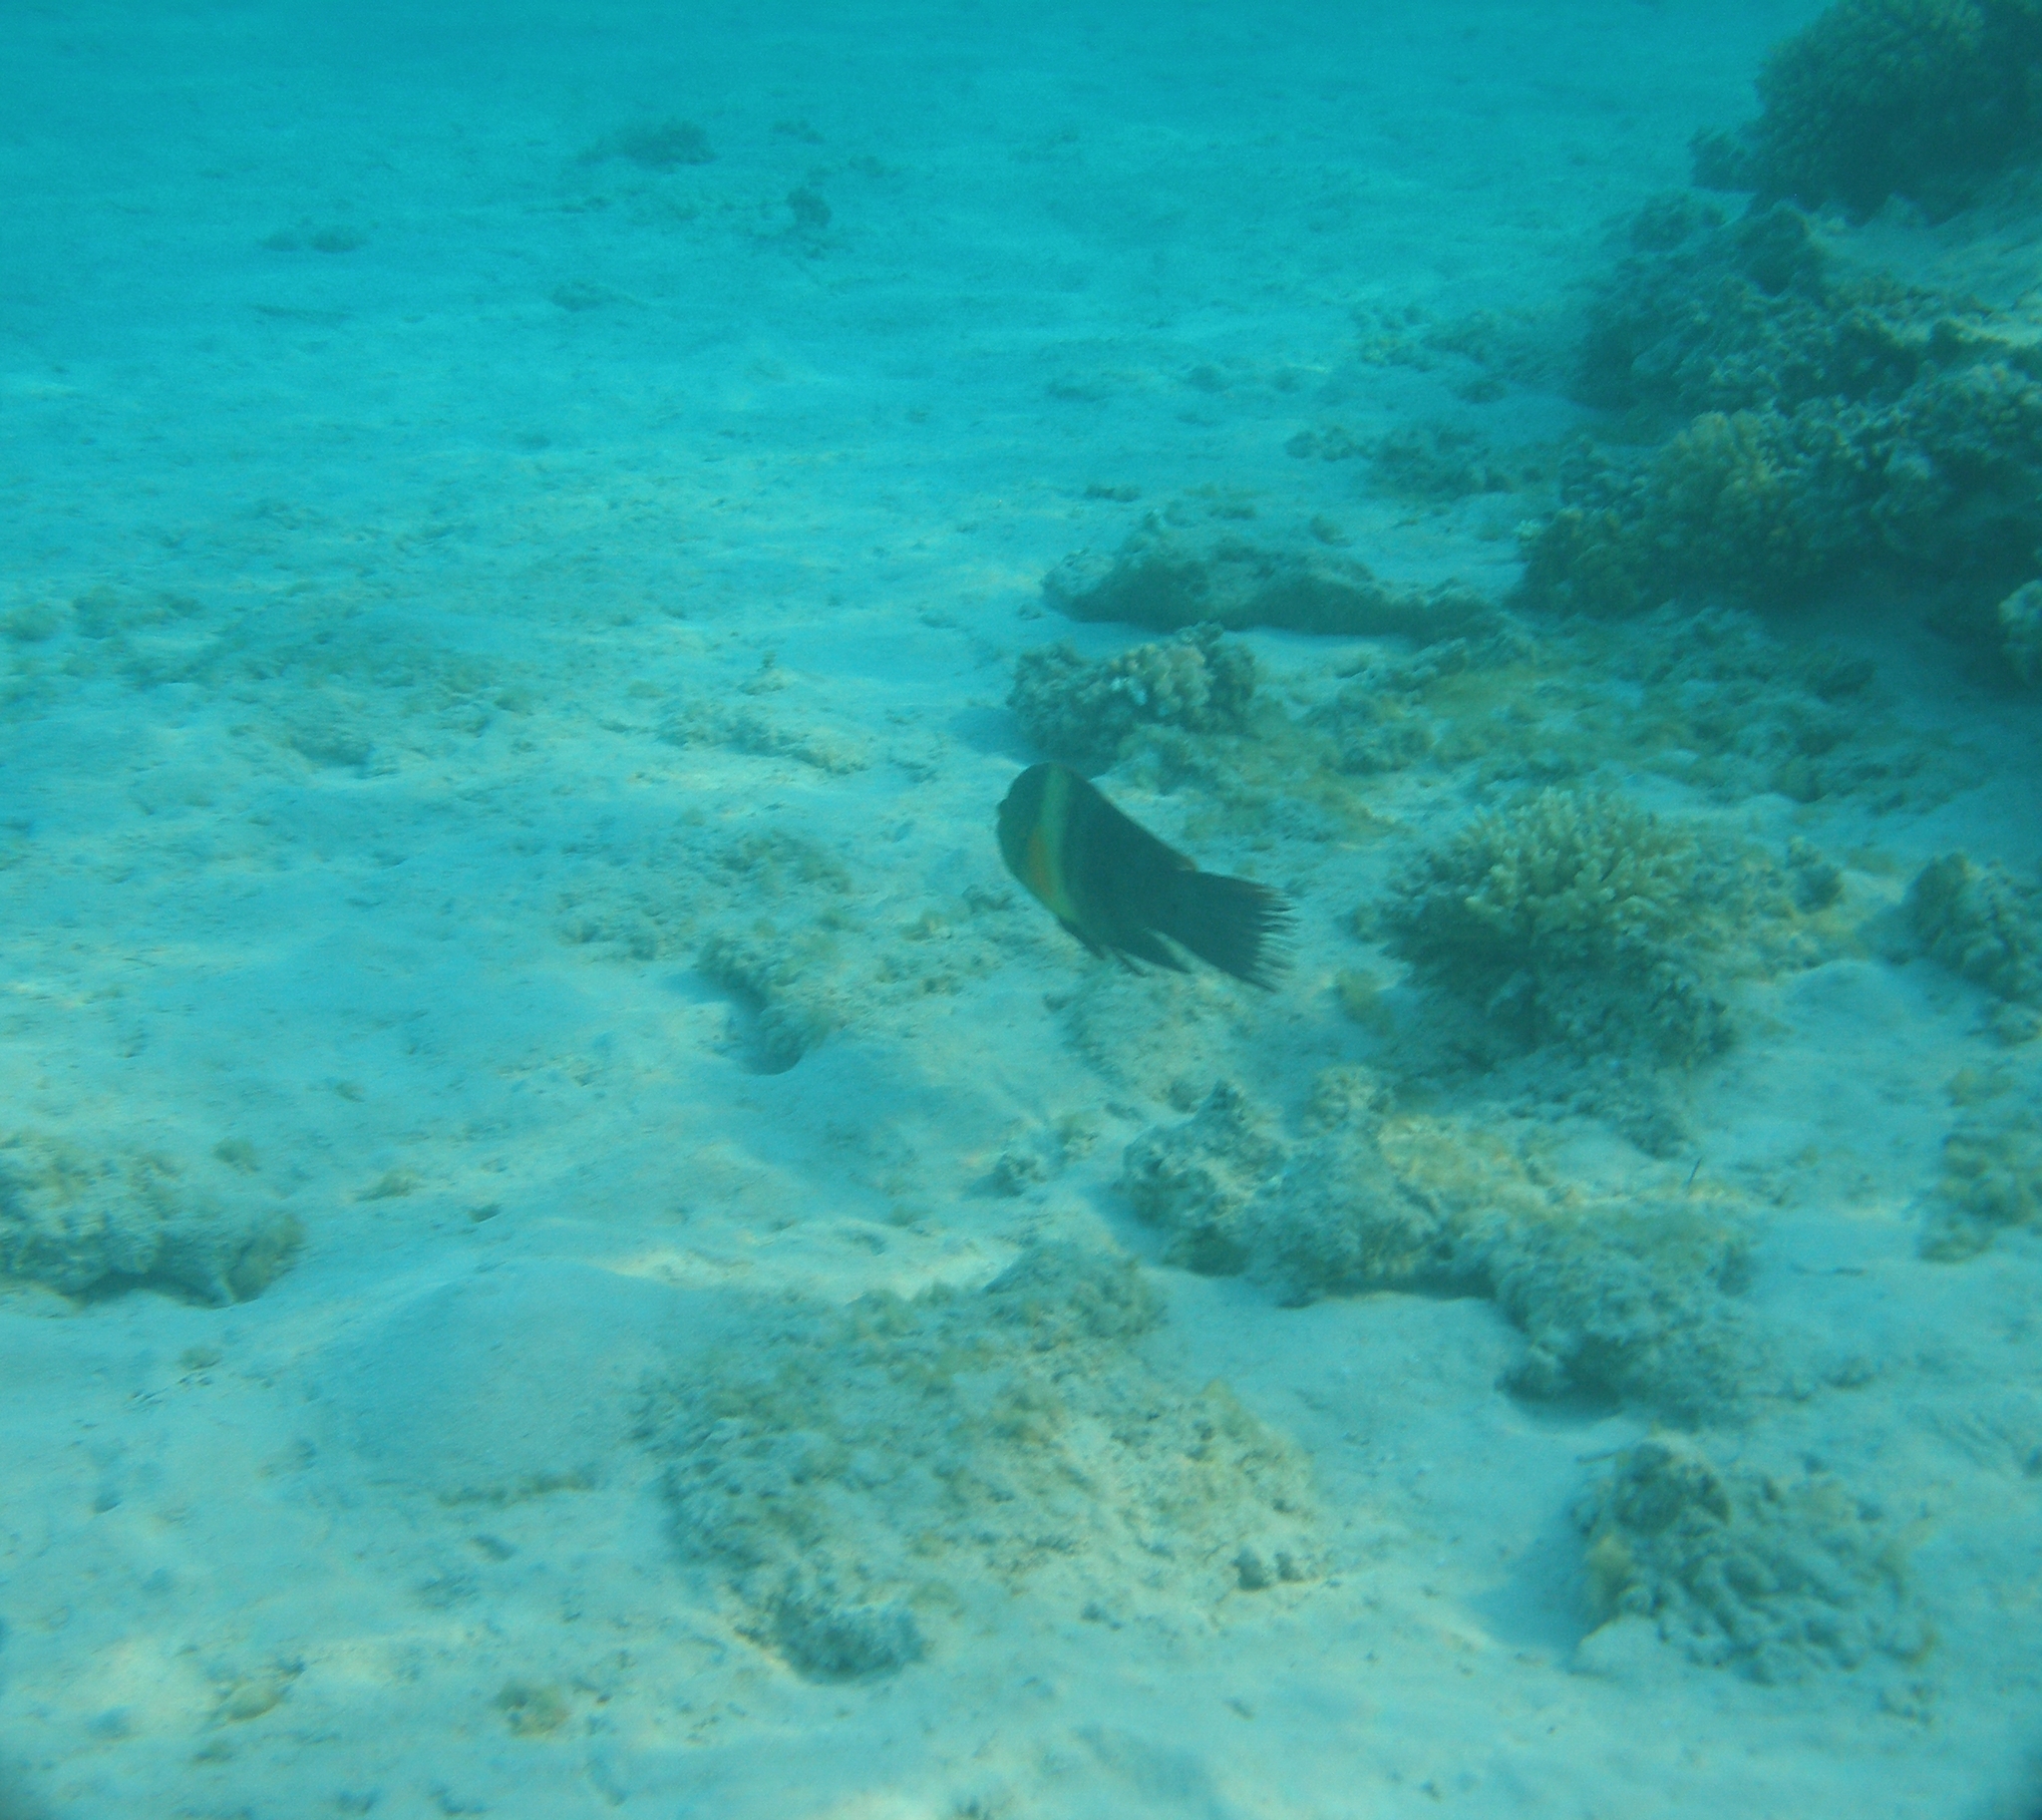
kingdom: Animalia
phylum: Chordata
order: Perciformes
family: Labridae
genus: Cheilinus
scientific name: Cheilinus lunulatus
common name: Broomtail wrasse
